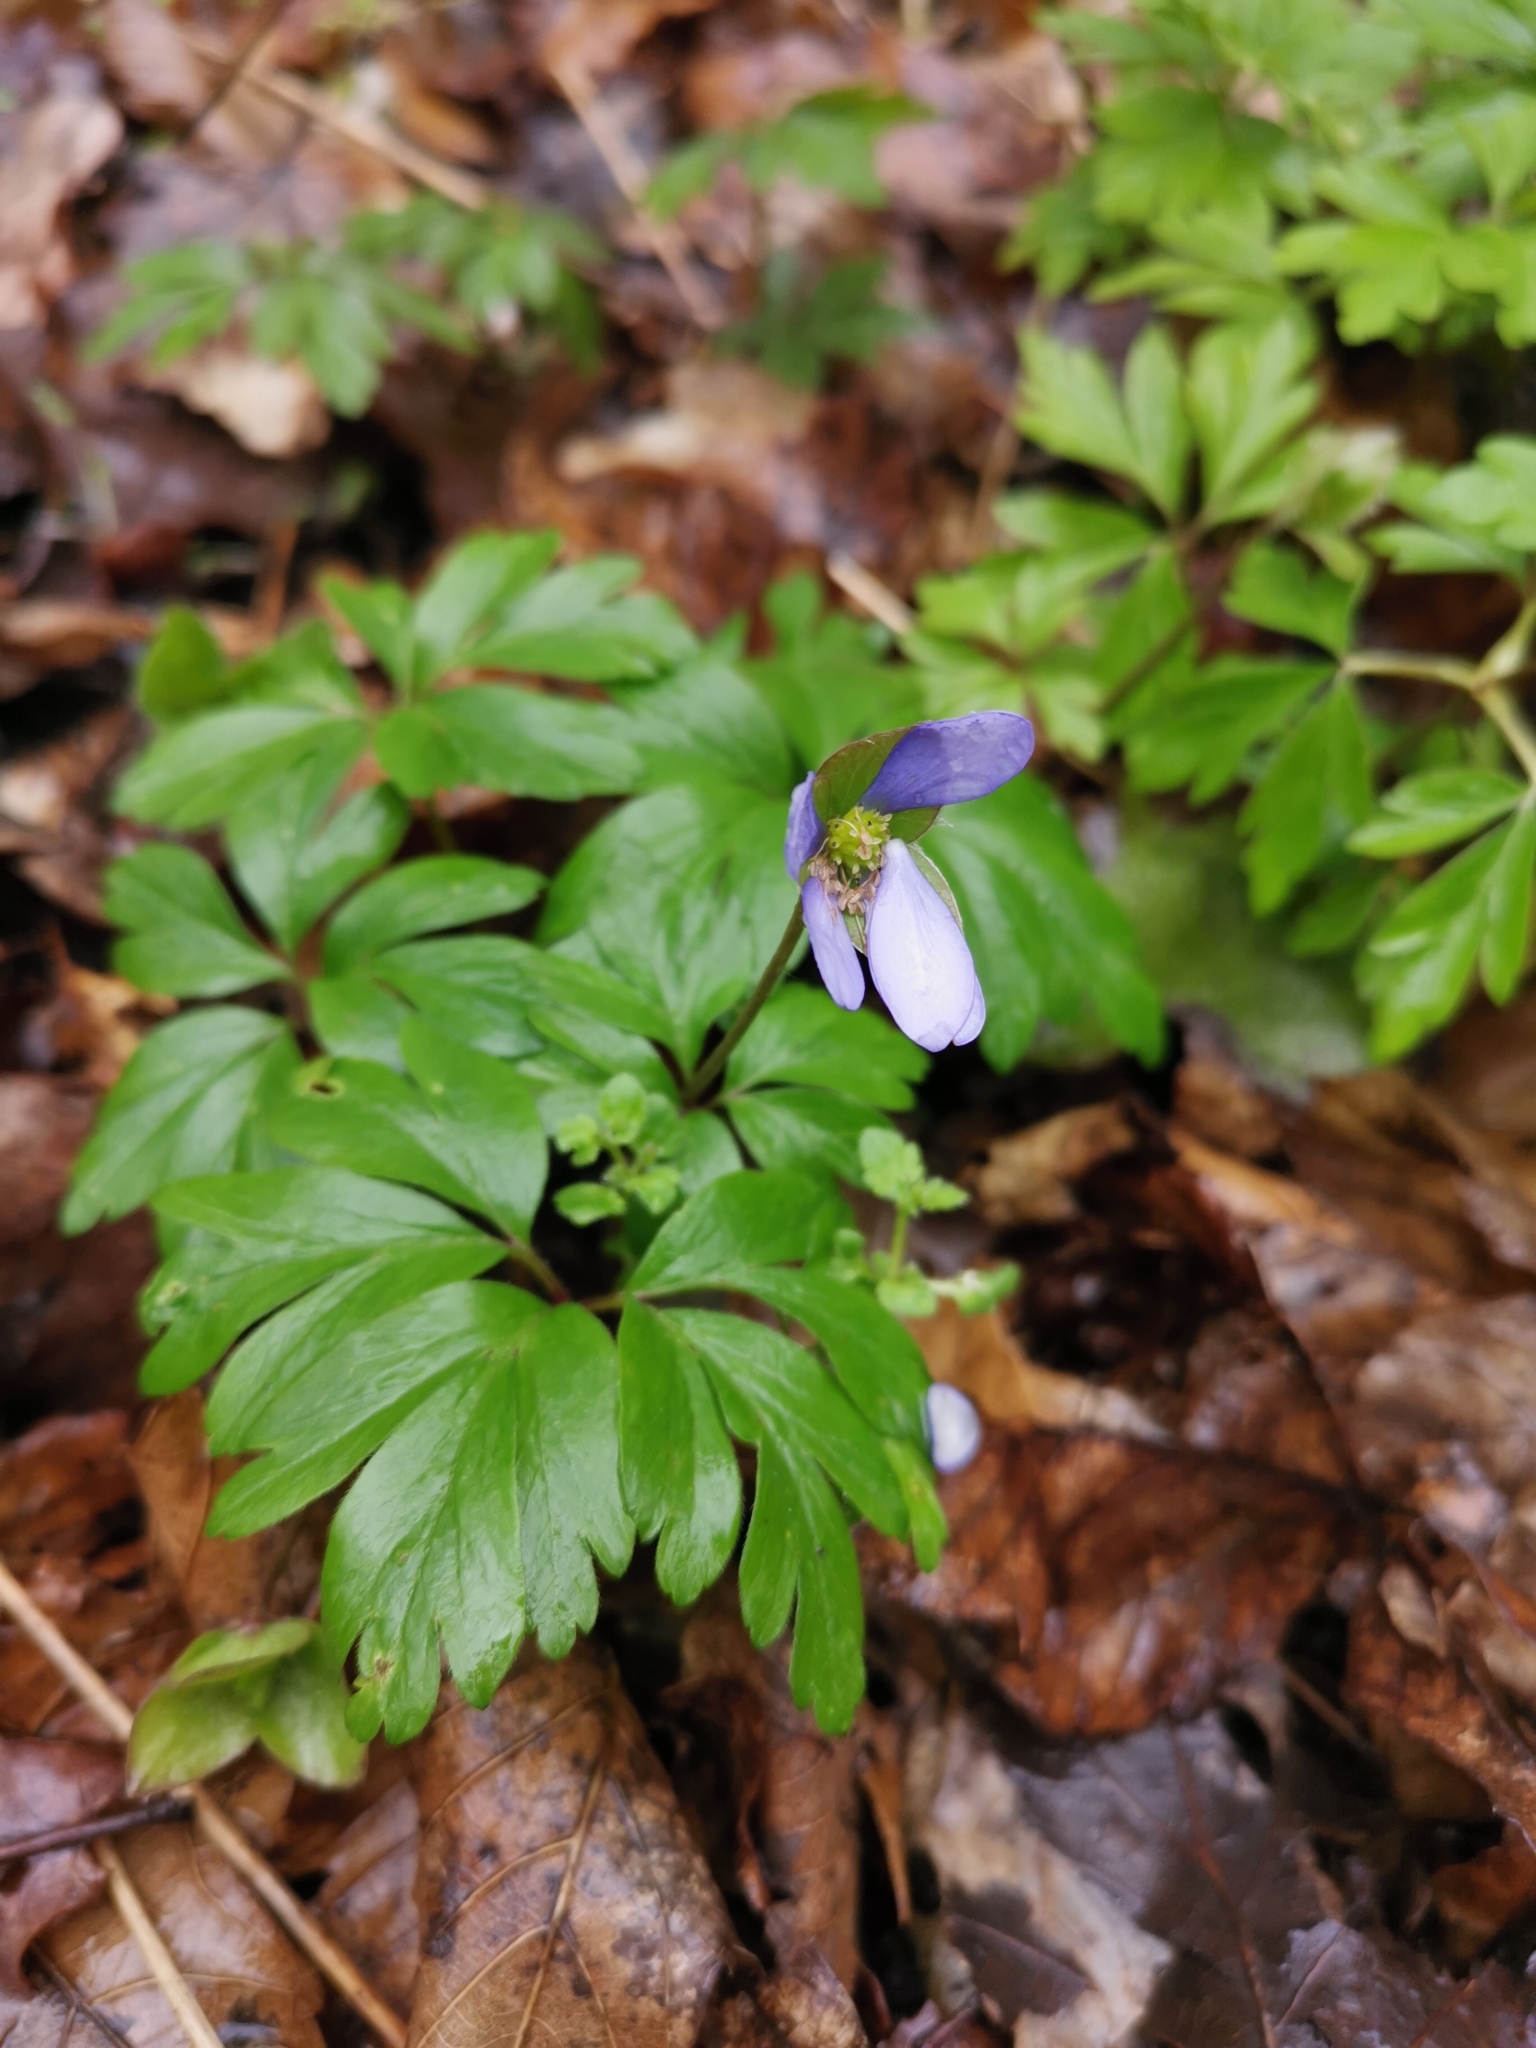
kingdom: Plantae
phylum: Tracheophyta
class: Magnoliopsida
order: Ranunculales
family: Ranunculaceae
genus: Anemone
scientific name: Anemone nemorosa
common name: Wood anemone
